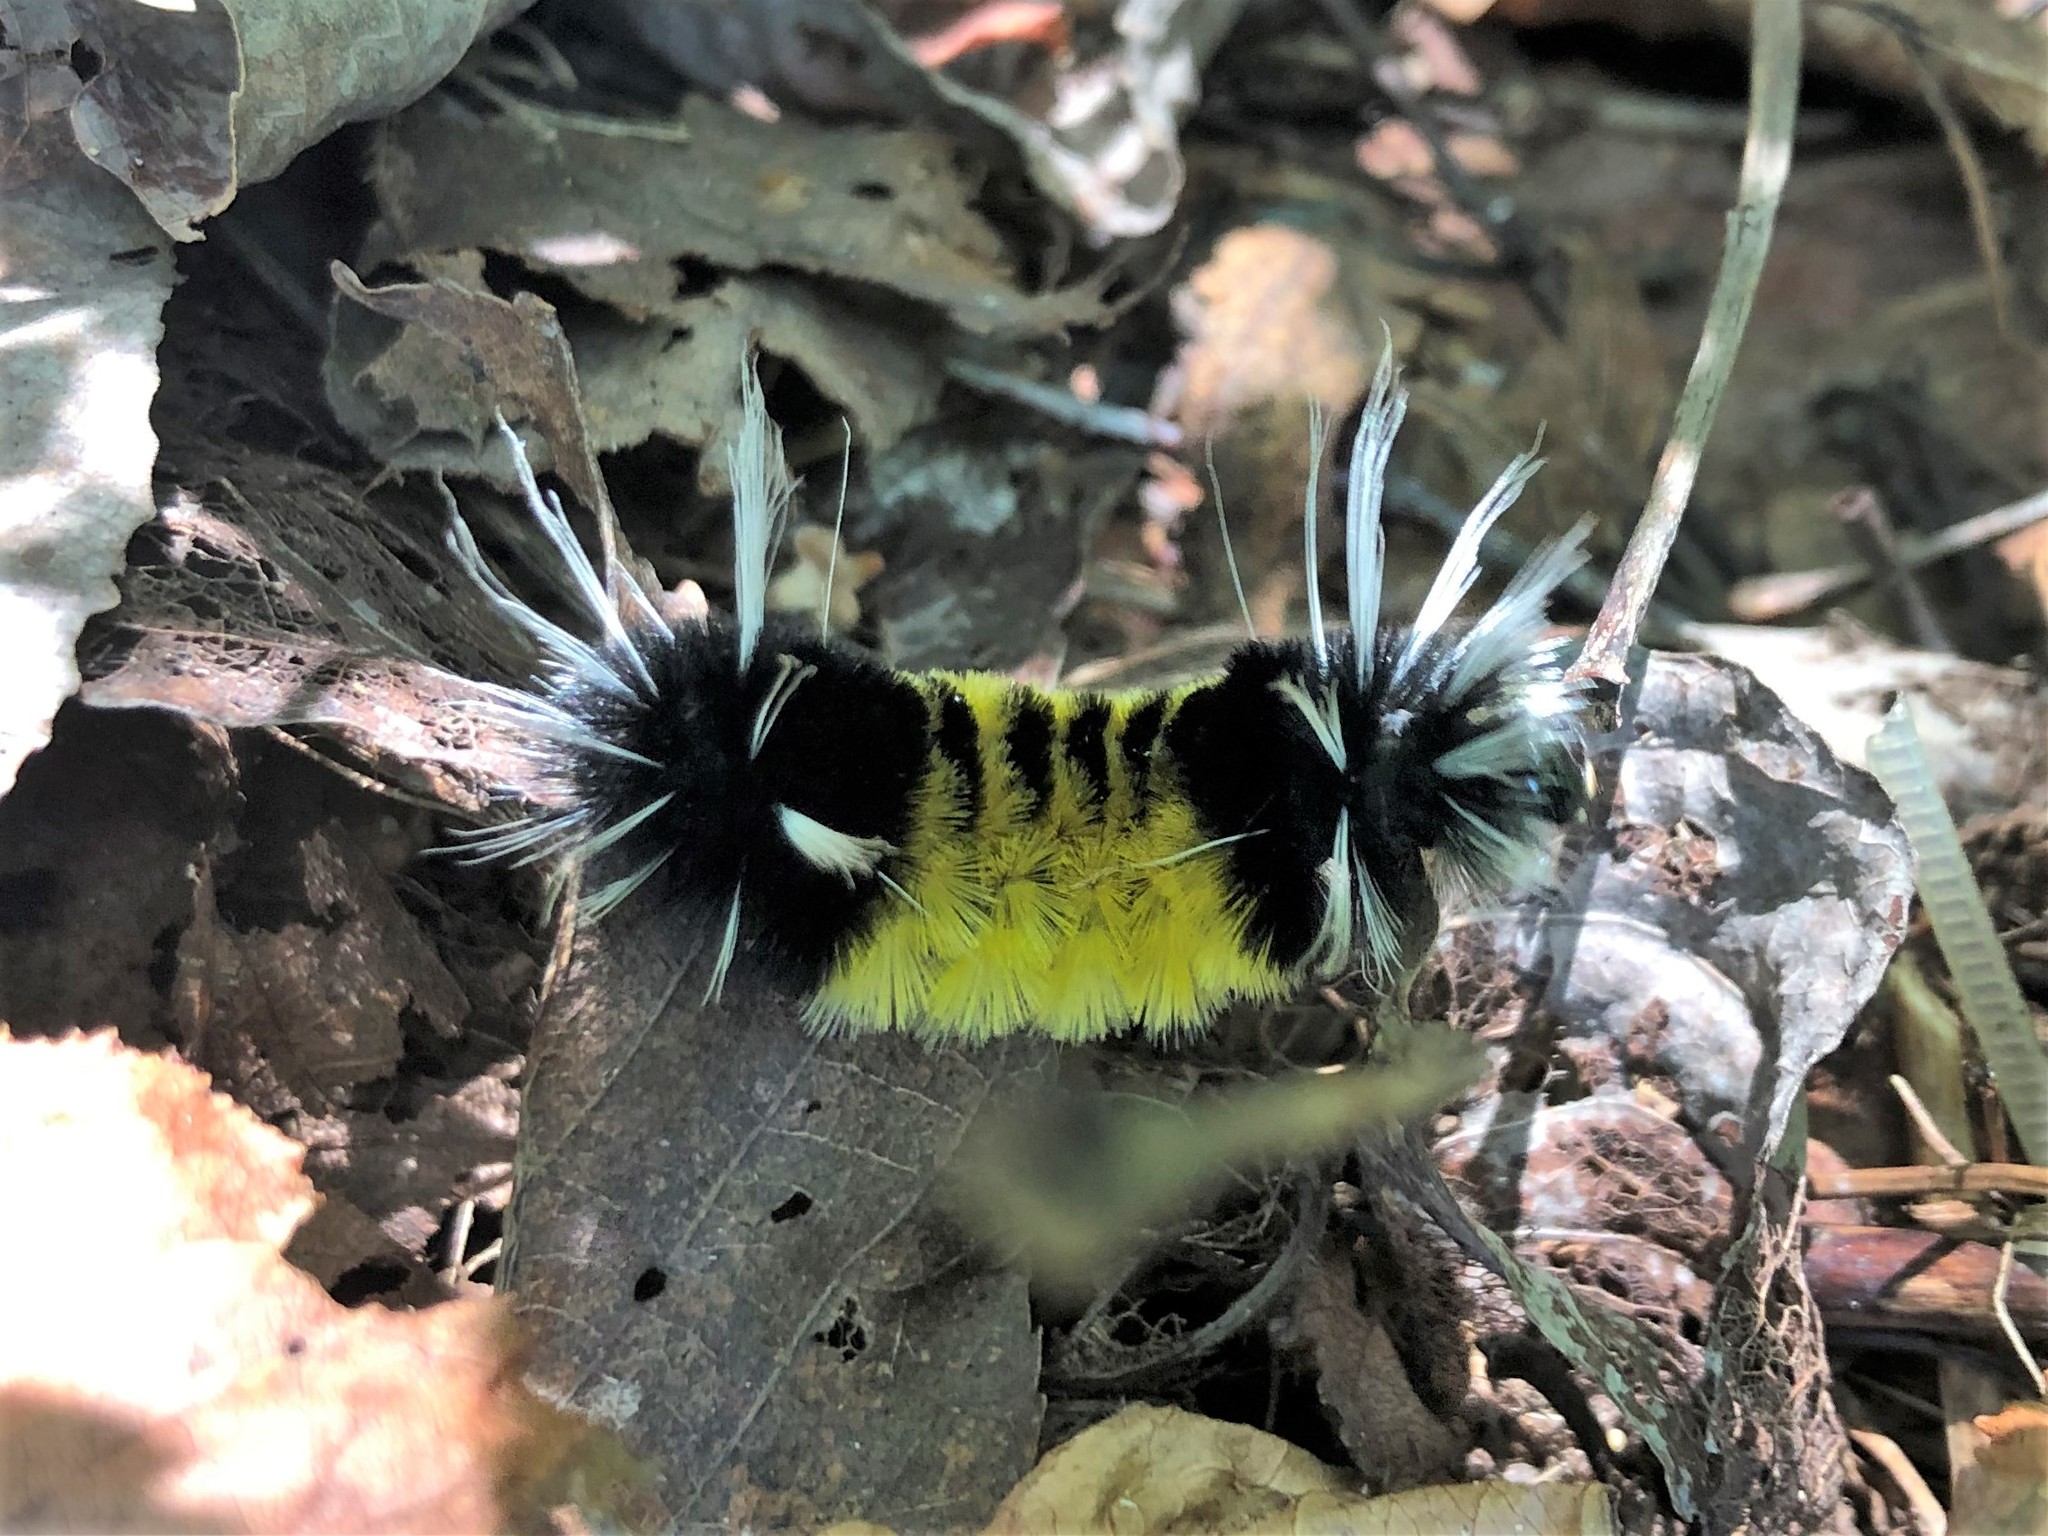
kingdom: Animalia
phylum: Arthropoda
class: Insecta
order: Lepidoptera
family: Erebidae
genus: Lophocampa
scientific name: Lophocampa maculata
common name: Spotted tussock moth
